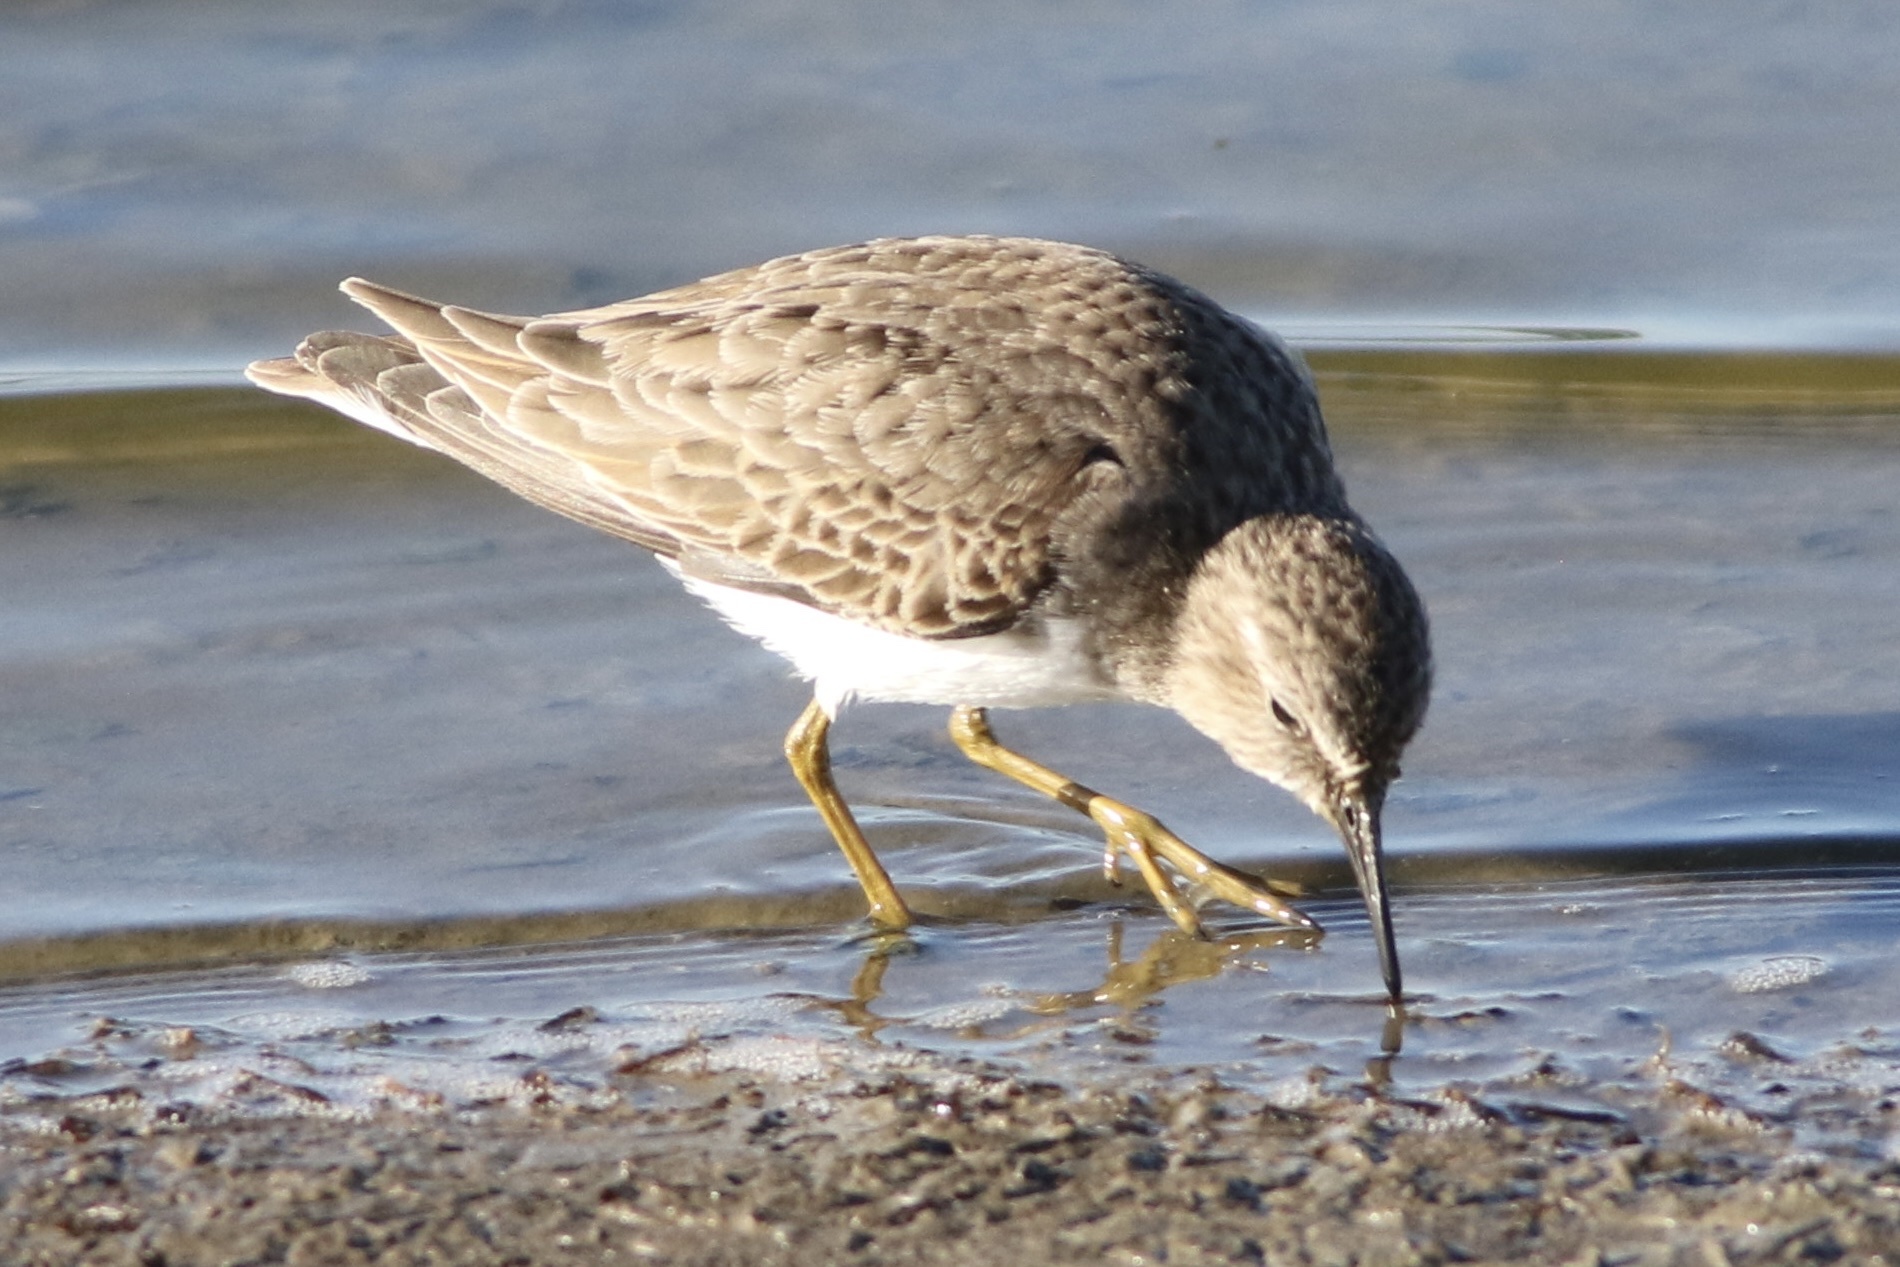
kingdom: Animalia
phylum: Chordata
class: Aves
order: Charadriiformes
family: Scolopacidae
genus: Calidris
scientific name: Calidris minutilla
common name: Least sandpiper
